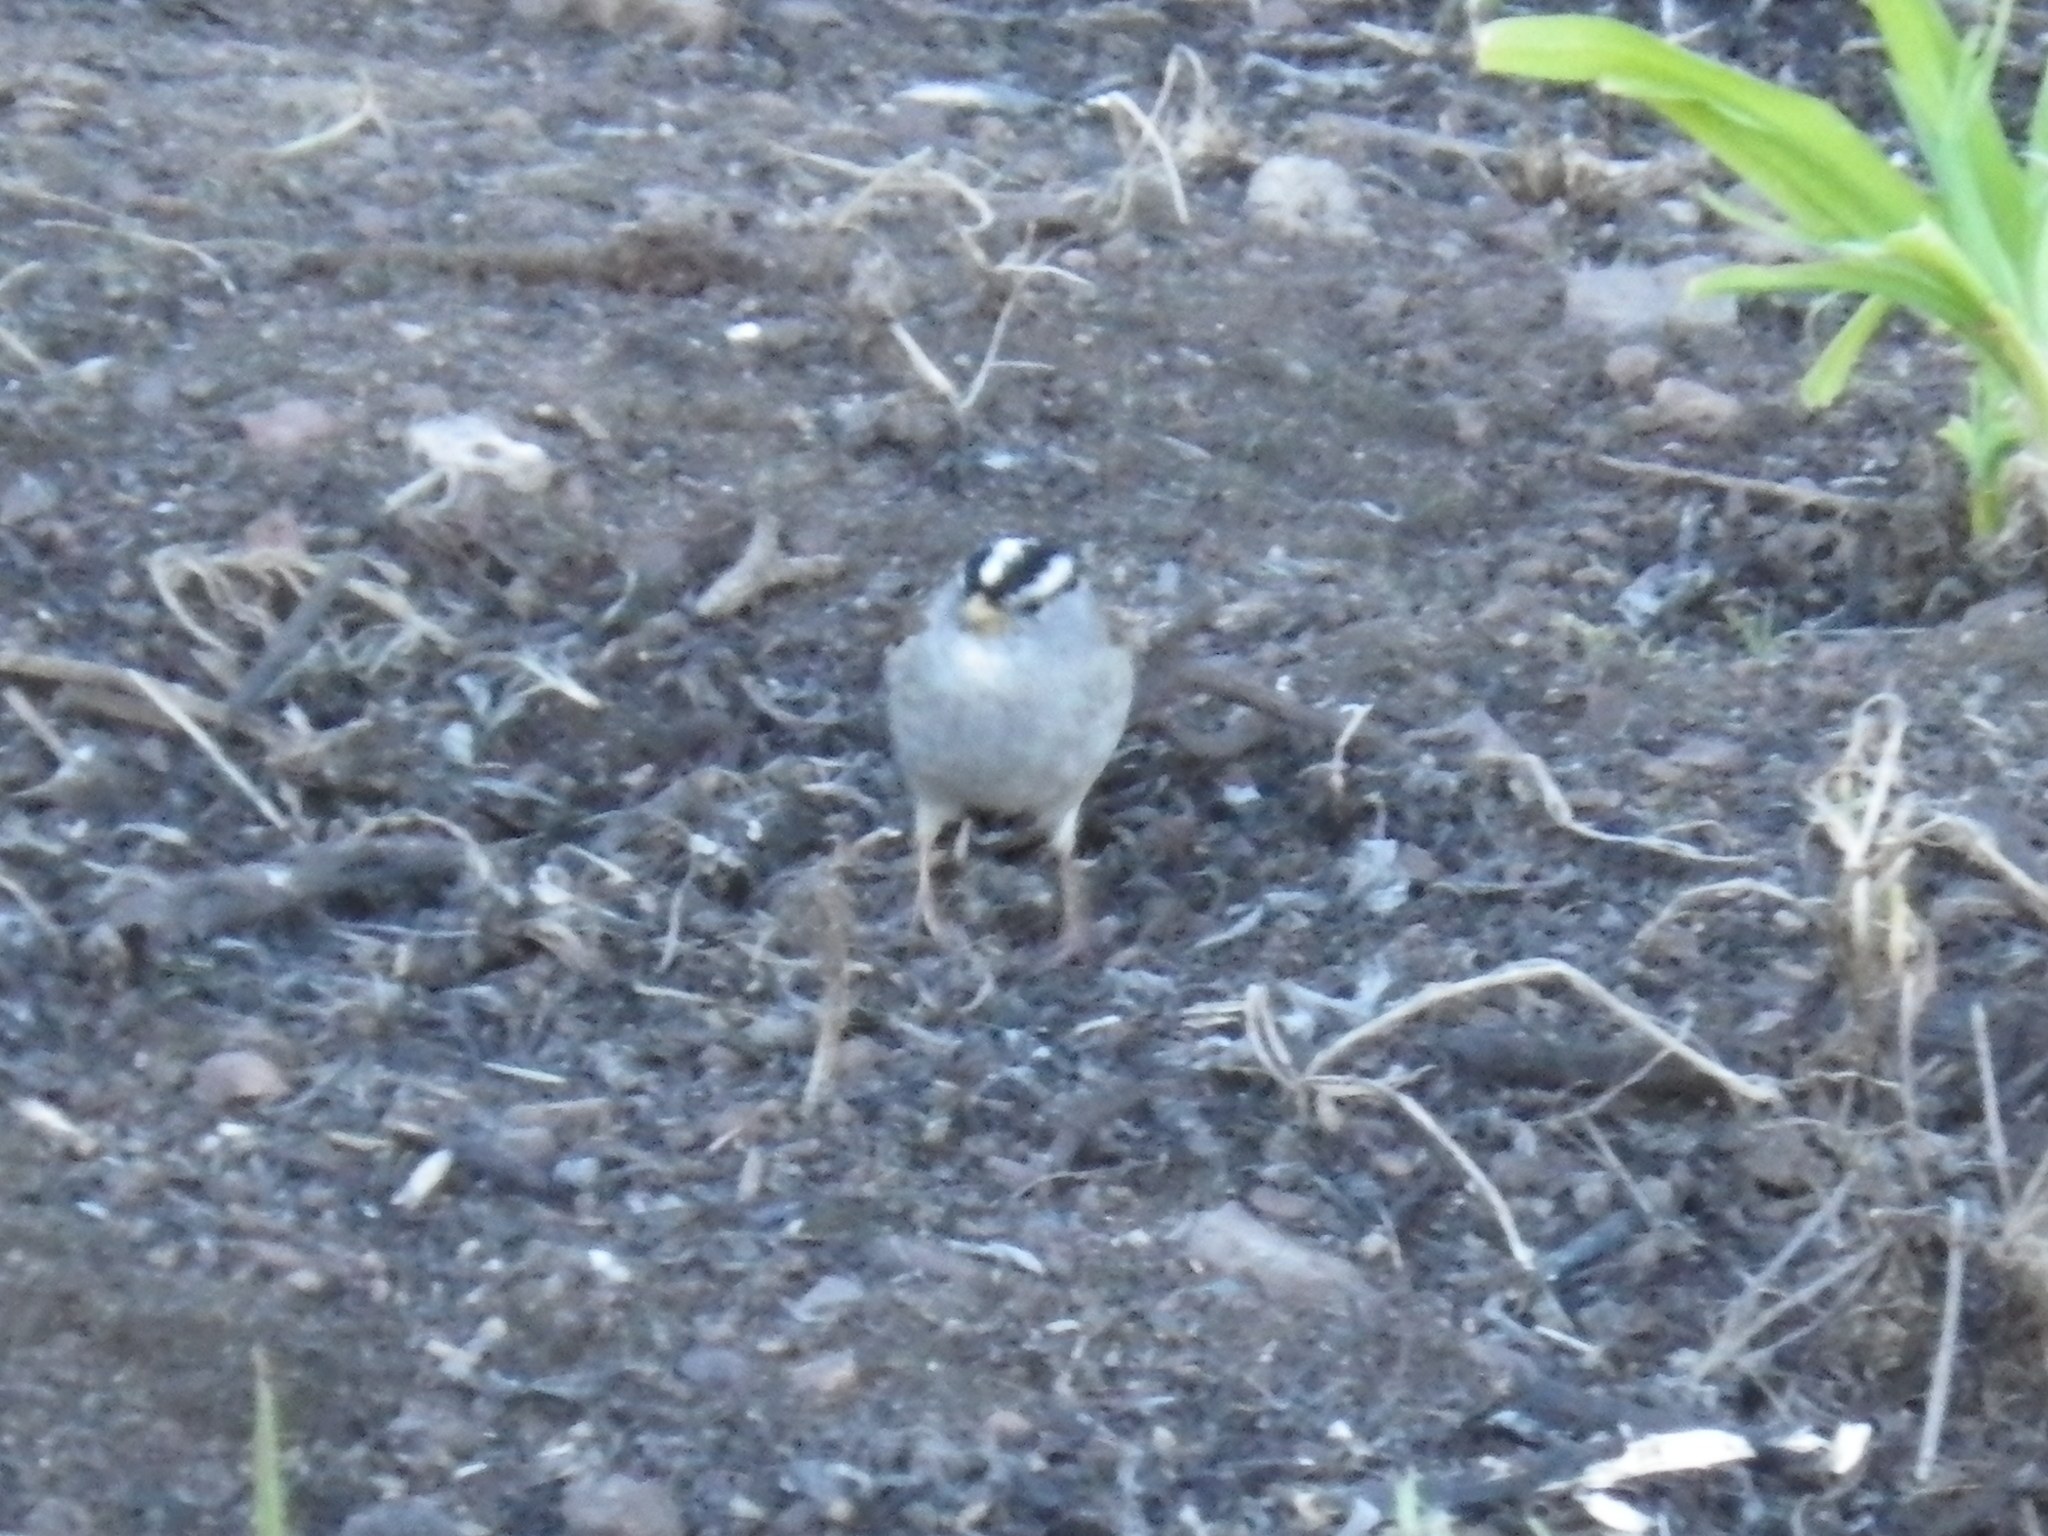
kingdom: Animalia
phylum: Chordata
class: Aves
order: Passeriformes
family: Passerellidae
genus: Zonotrichia
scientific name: Zonotrichia leucophrys
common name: White-crowned sparrow
